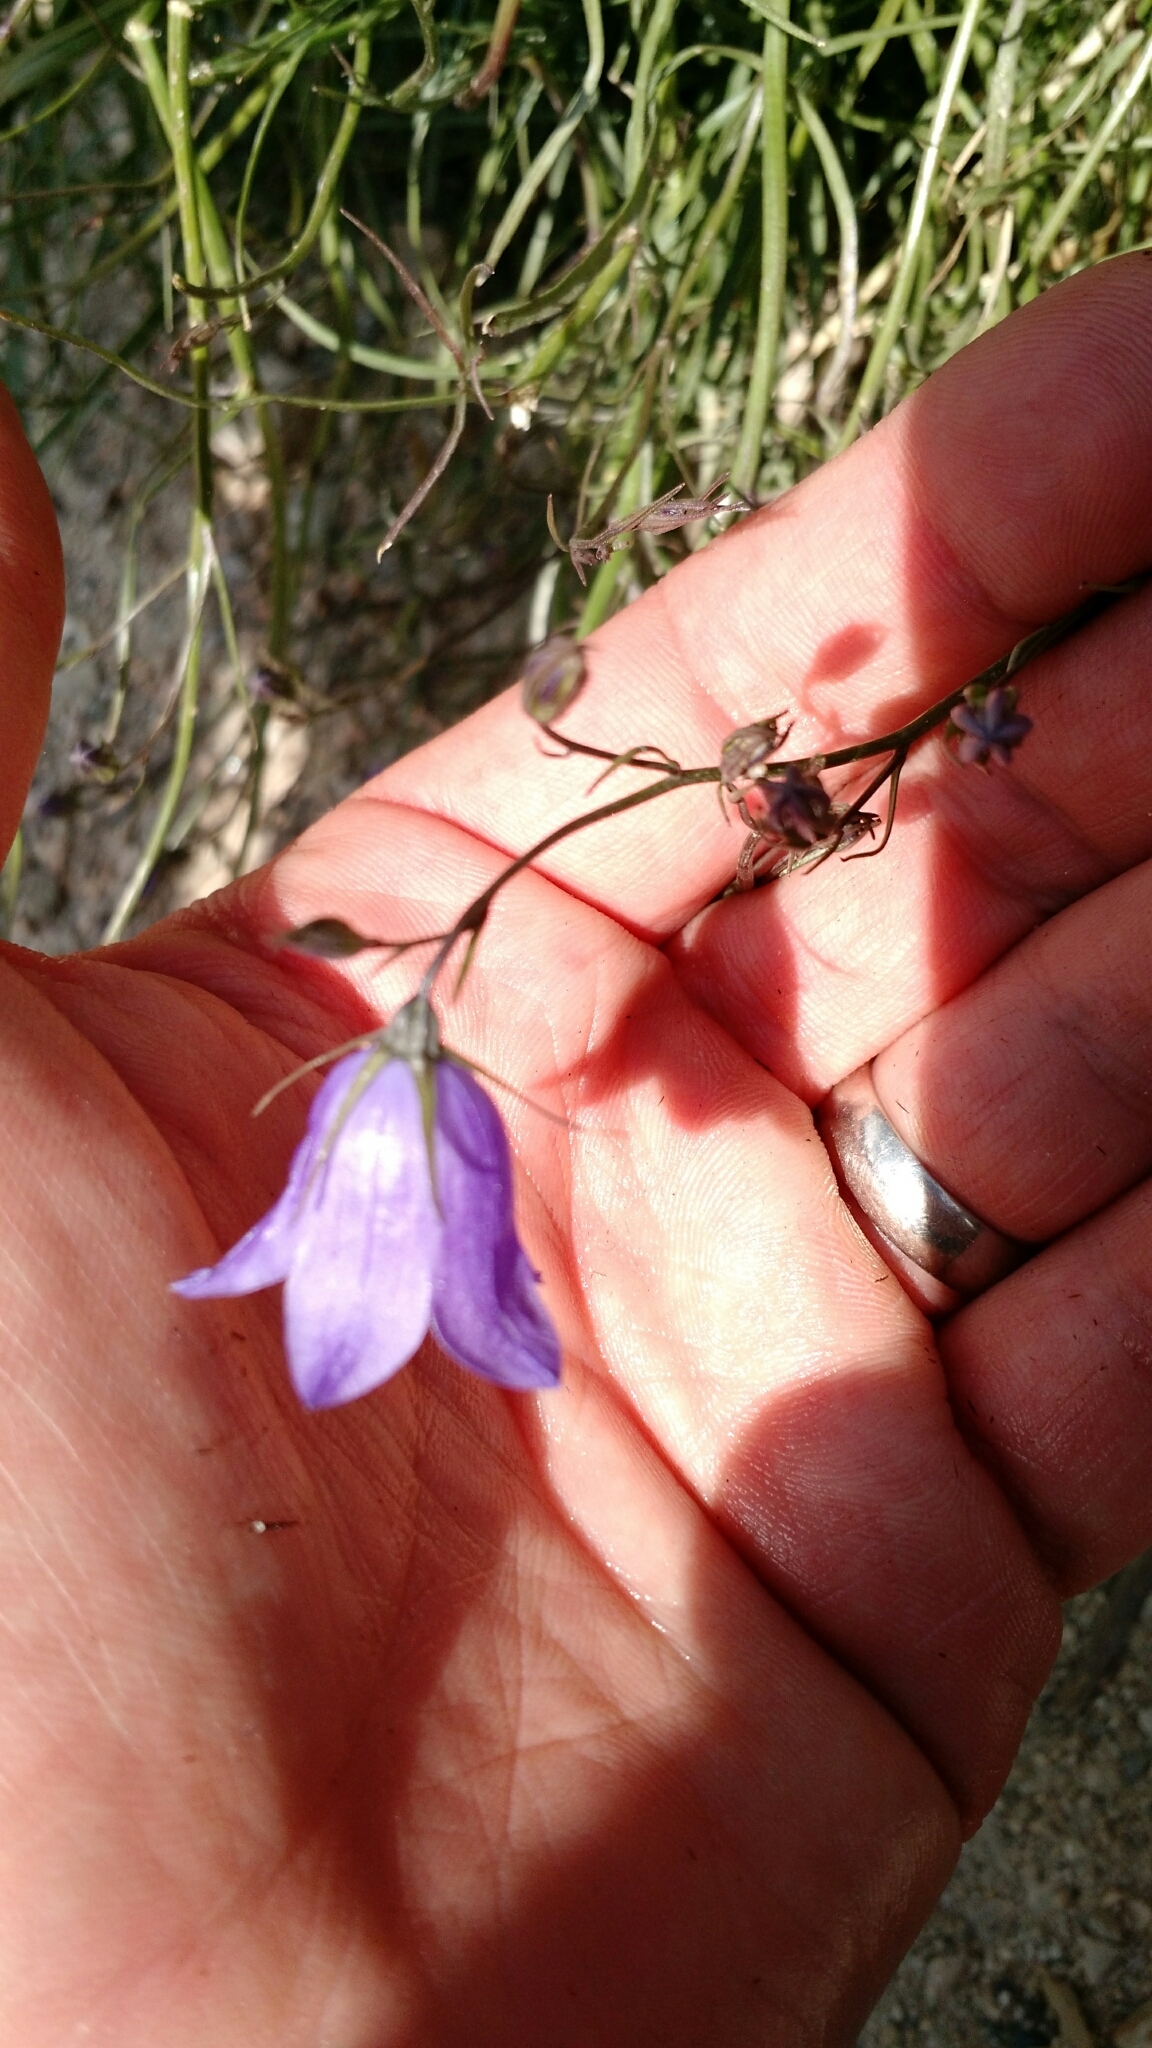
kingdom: Plantae
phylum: Tracheophyta
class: Magnoliopsida
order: Asterales
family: Campanulaceae
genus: Campanula
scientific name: Campanula petiolata
